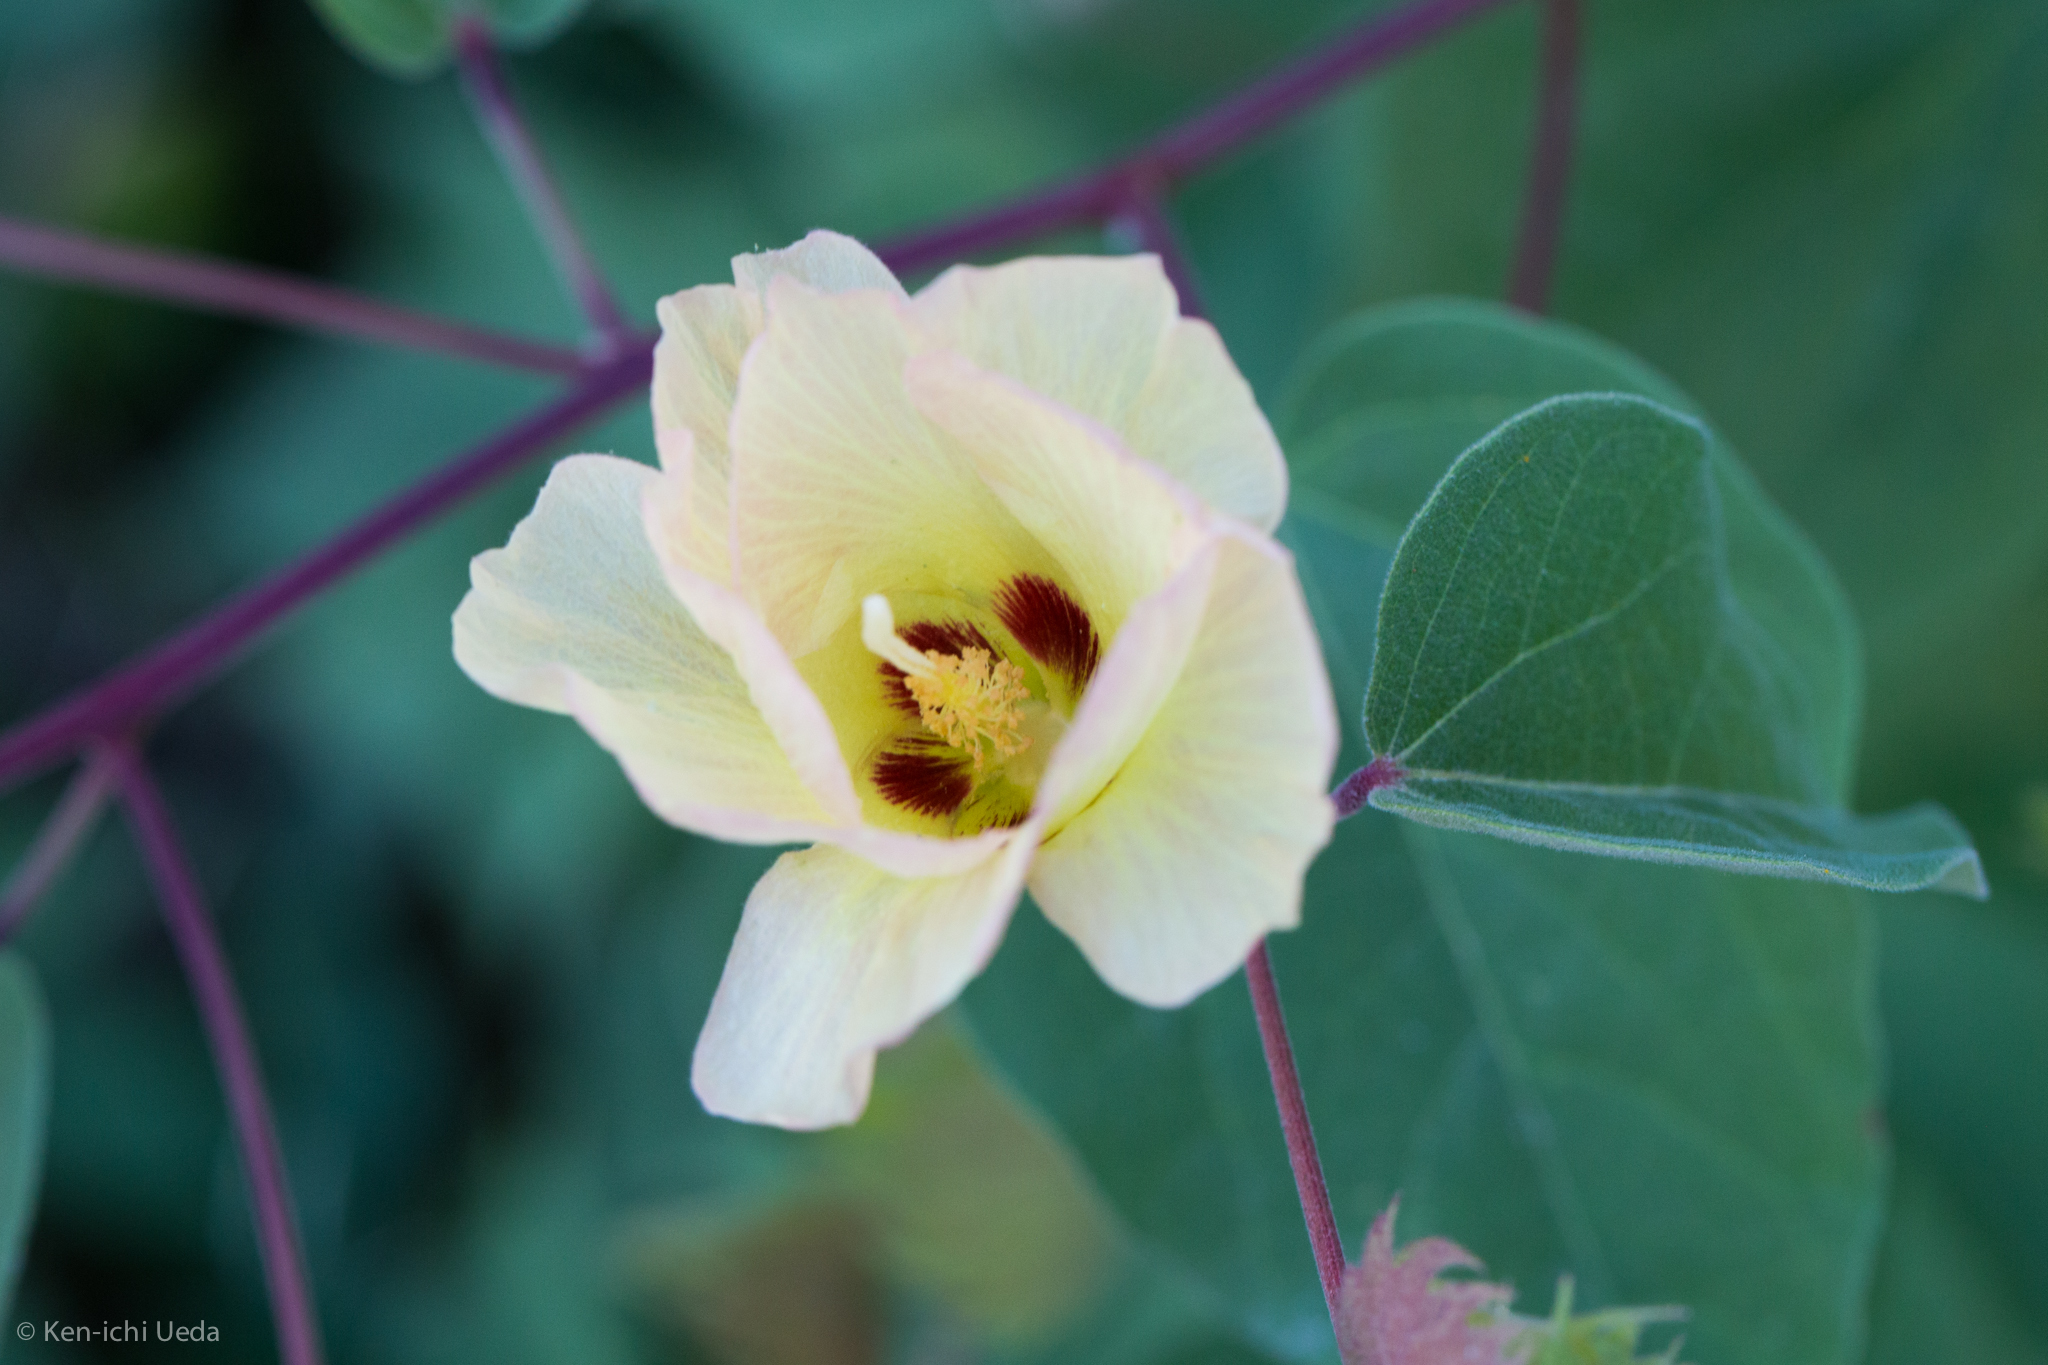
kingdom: Plantae
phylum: Tracheophyta
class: Magnoliopsida
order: Malvales
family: Malvaceae
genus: Gossypium
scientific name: Gossypium klotzschianum
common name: Galapagos cotton
